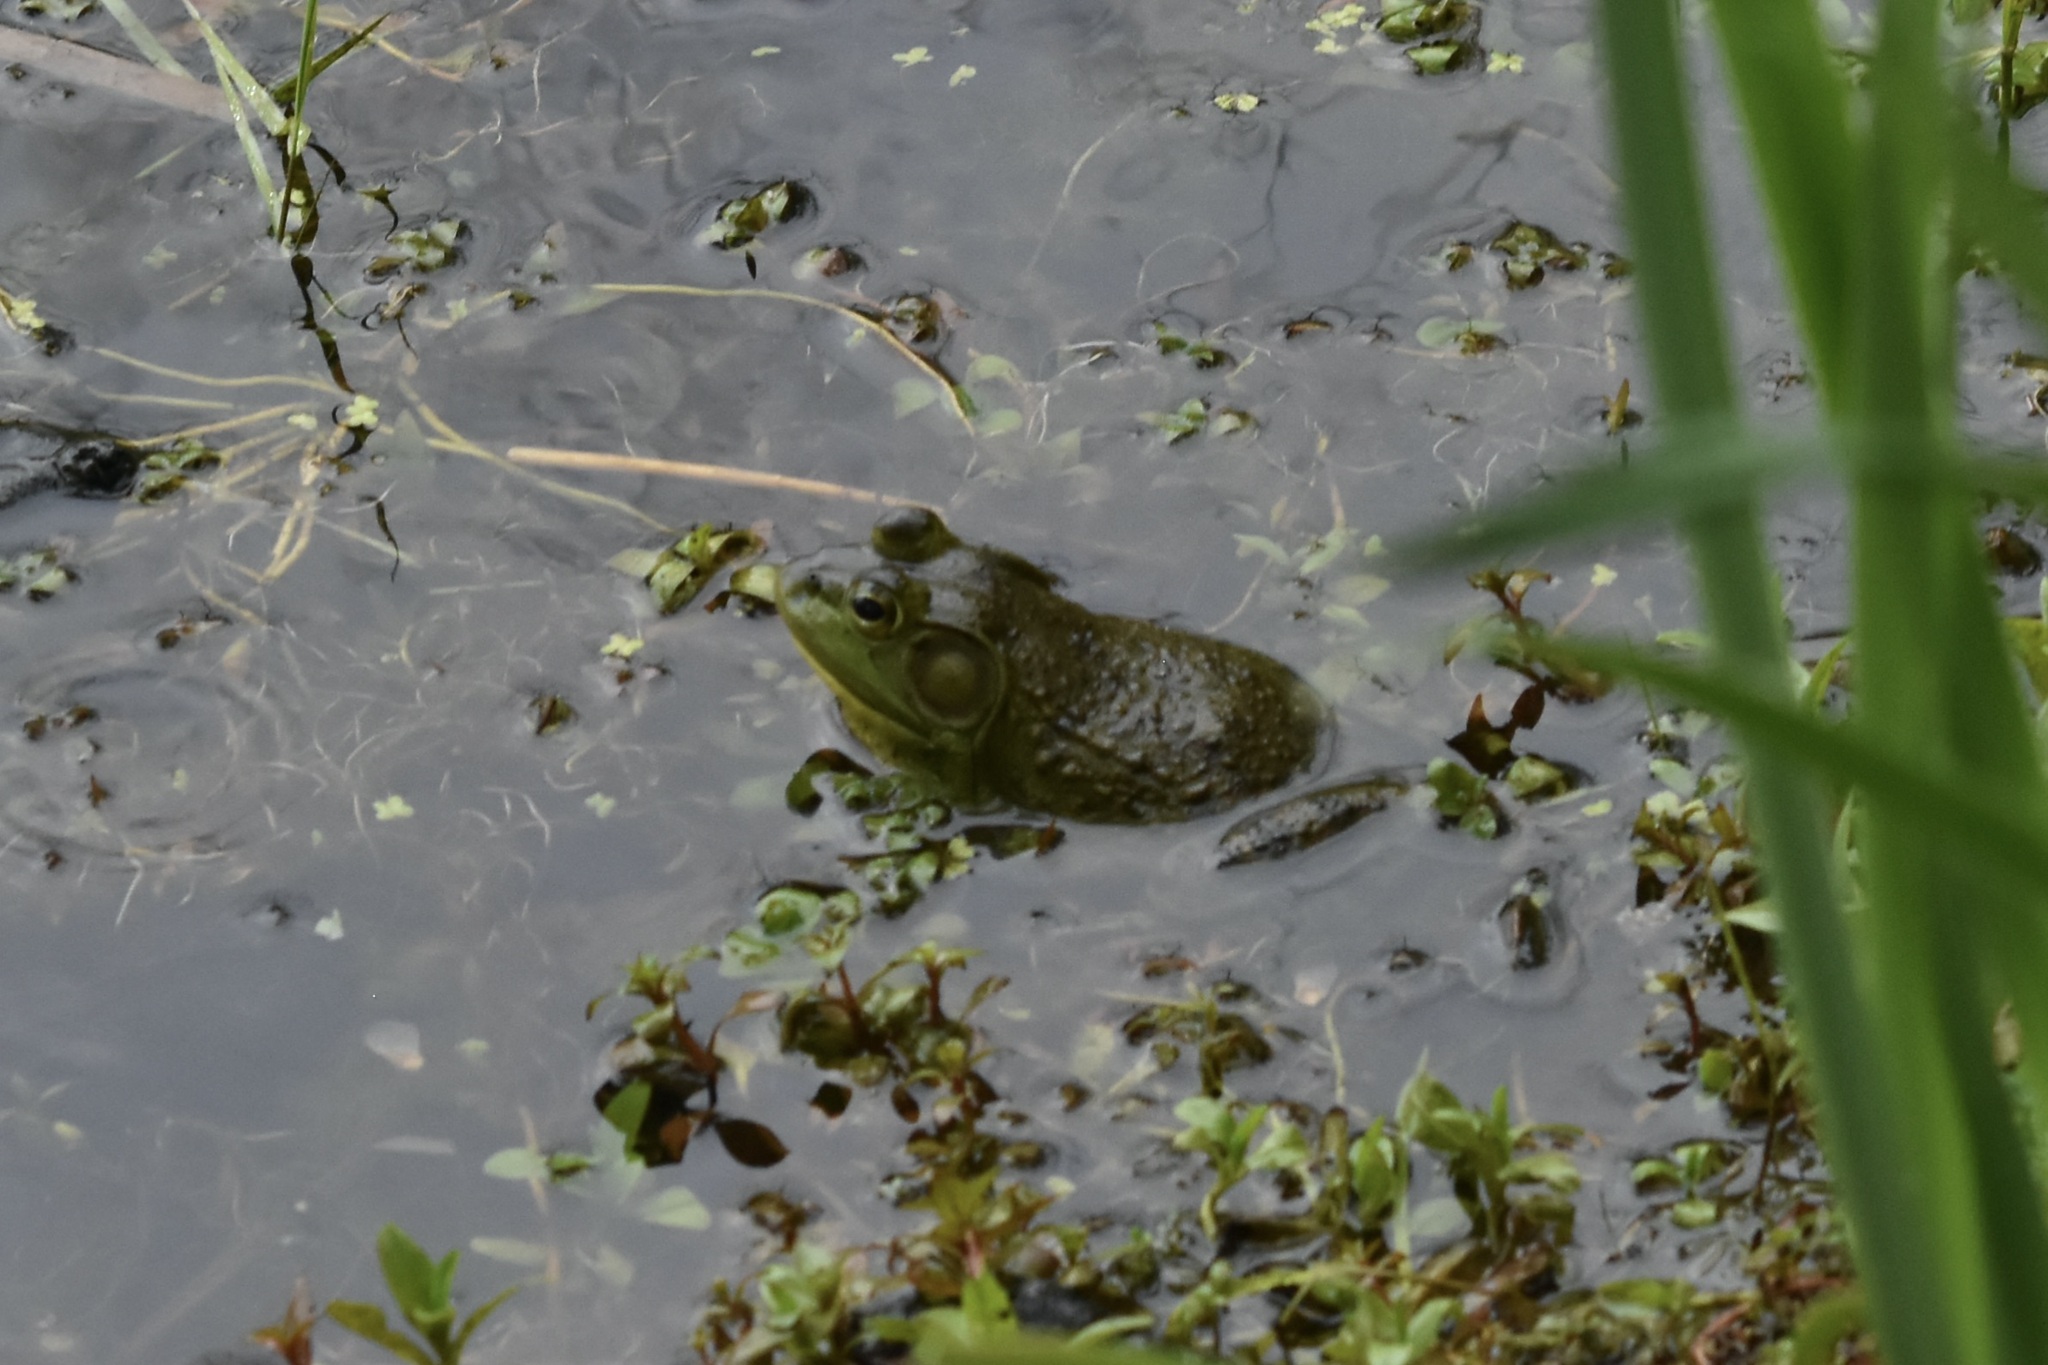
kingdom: Animalia
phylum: Chordata
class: Amphibia
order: Anura
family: Ranidae
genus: Lithobates
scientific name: Lithobates catesbeianus
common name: American bullfrog
